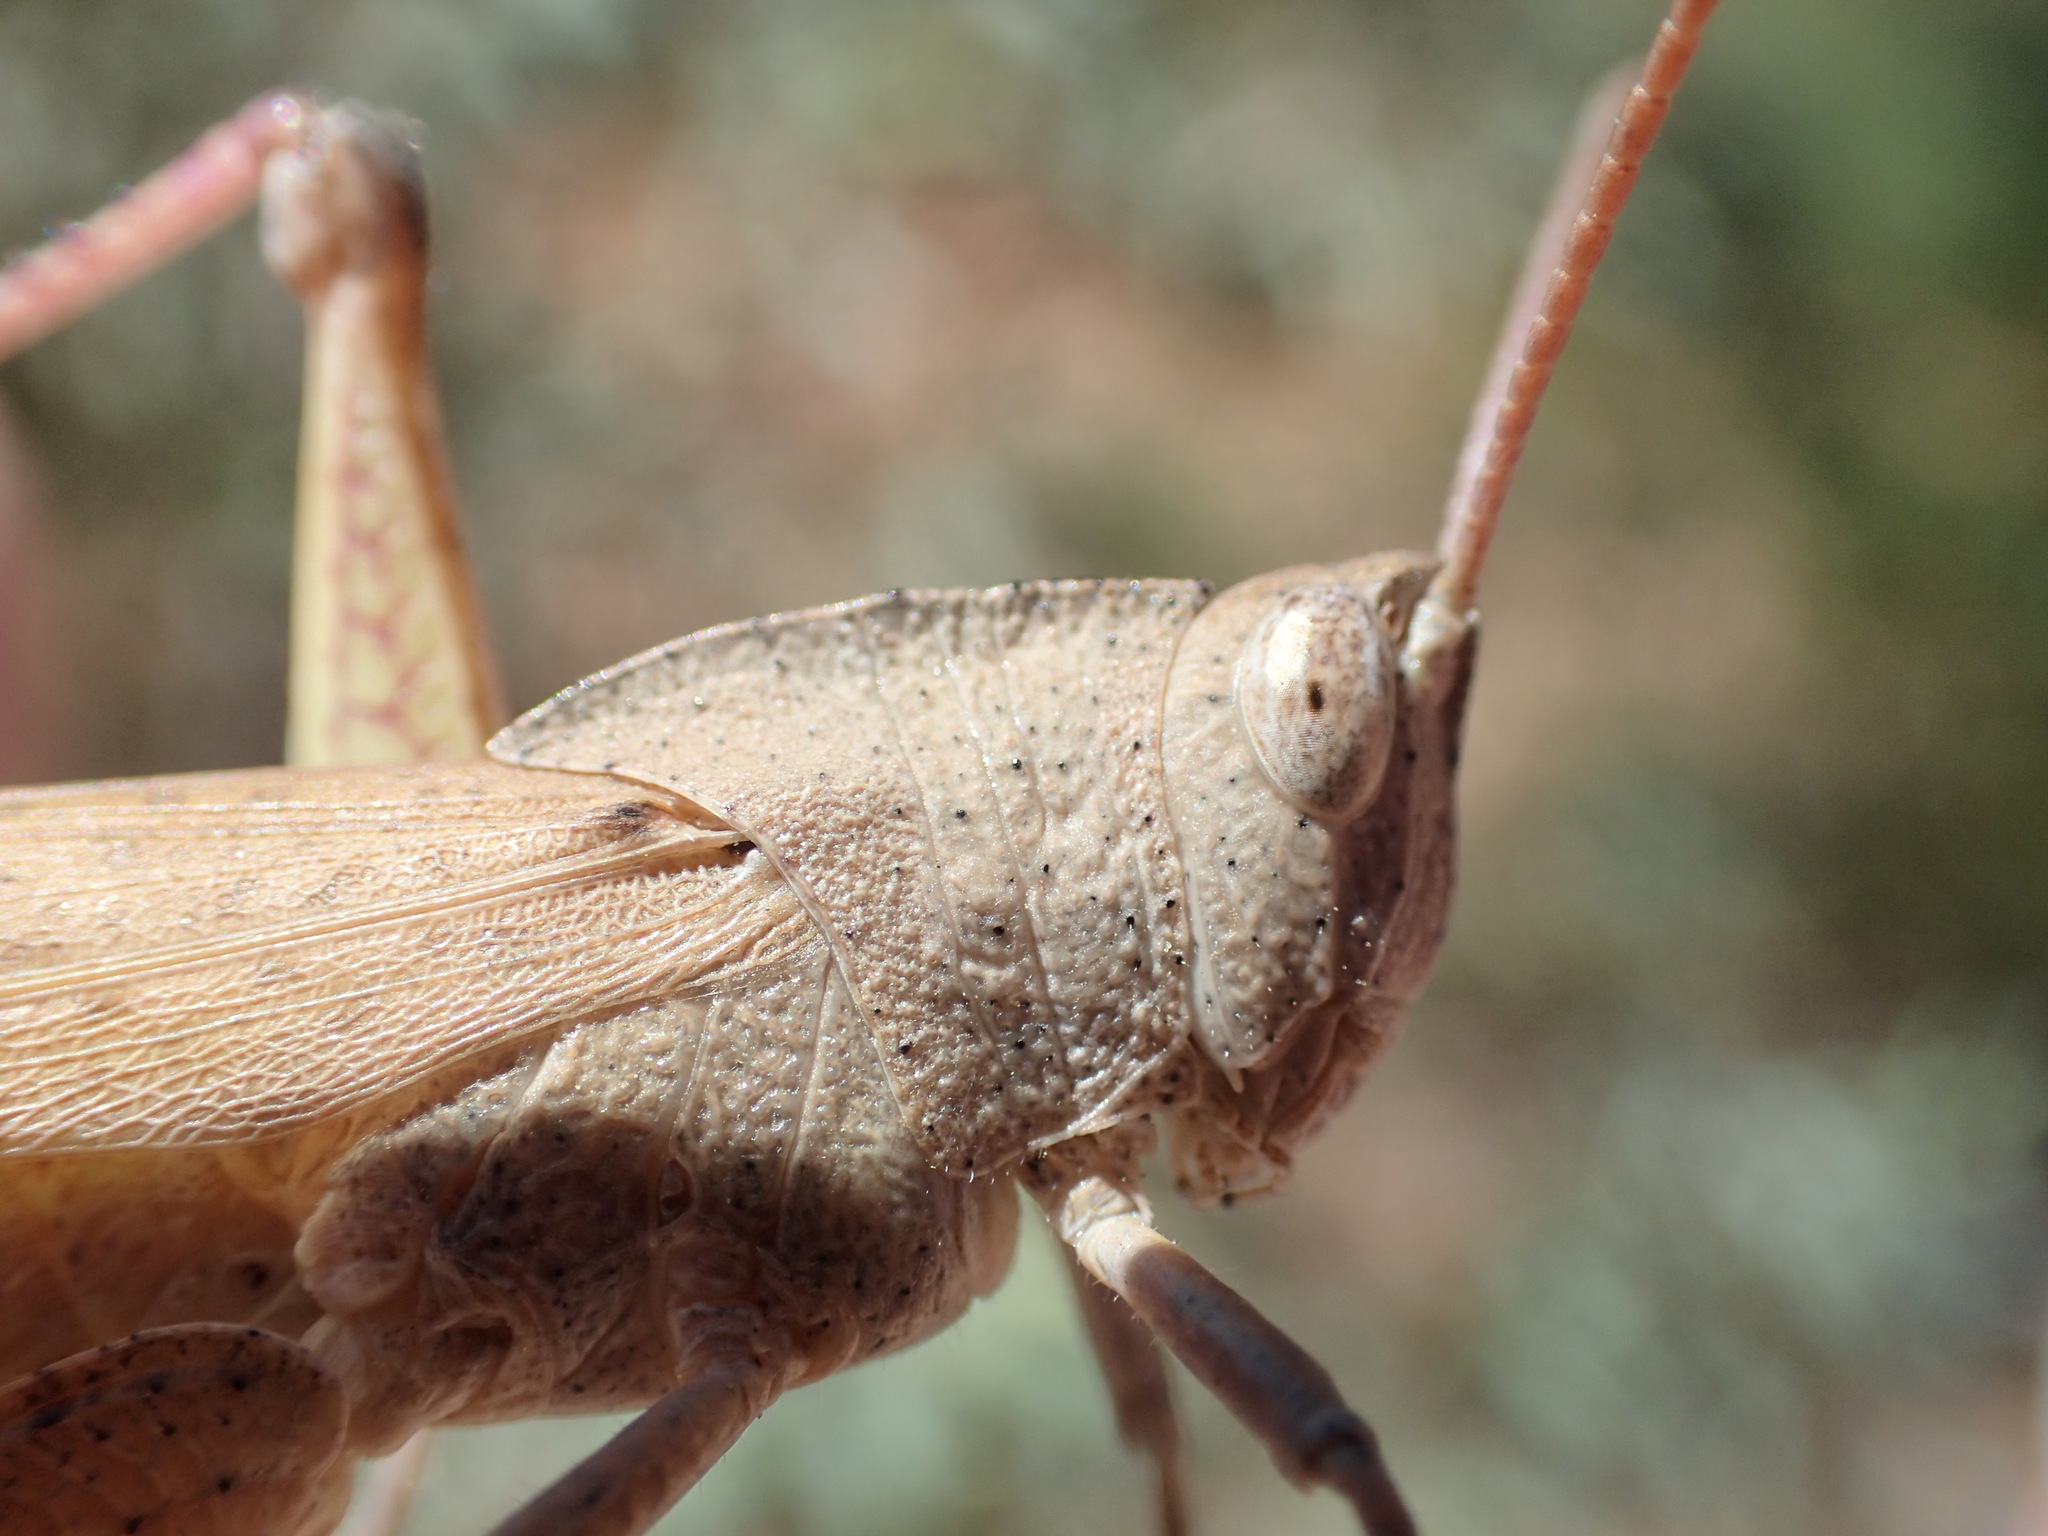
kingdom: Animalia
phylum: Arthropoda
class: Insecta
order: Orthoptera
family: Acrididae
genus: Goniaea
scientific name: Goniaea australasiae
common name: Gumleaf grasshopper
